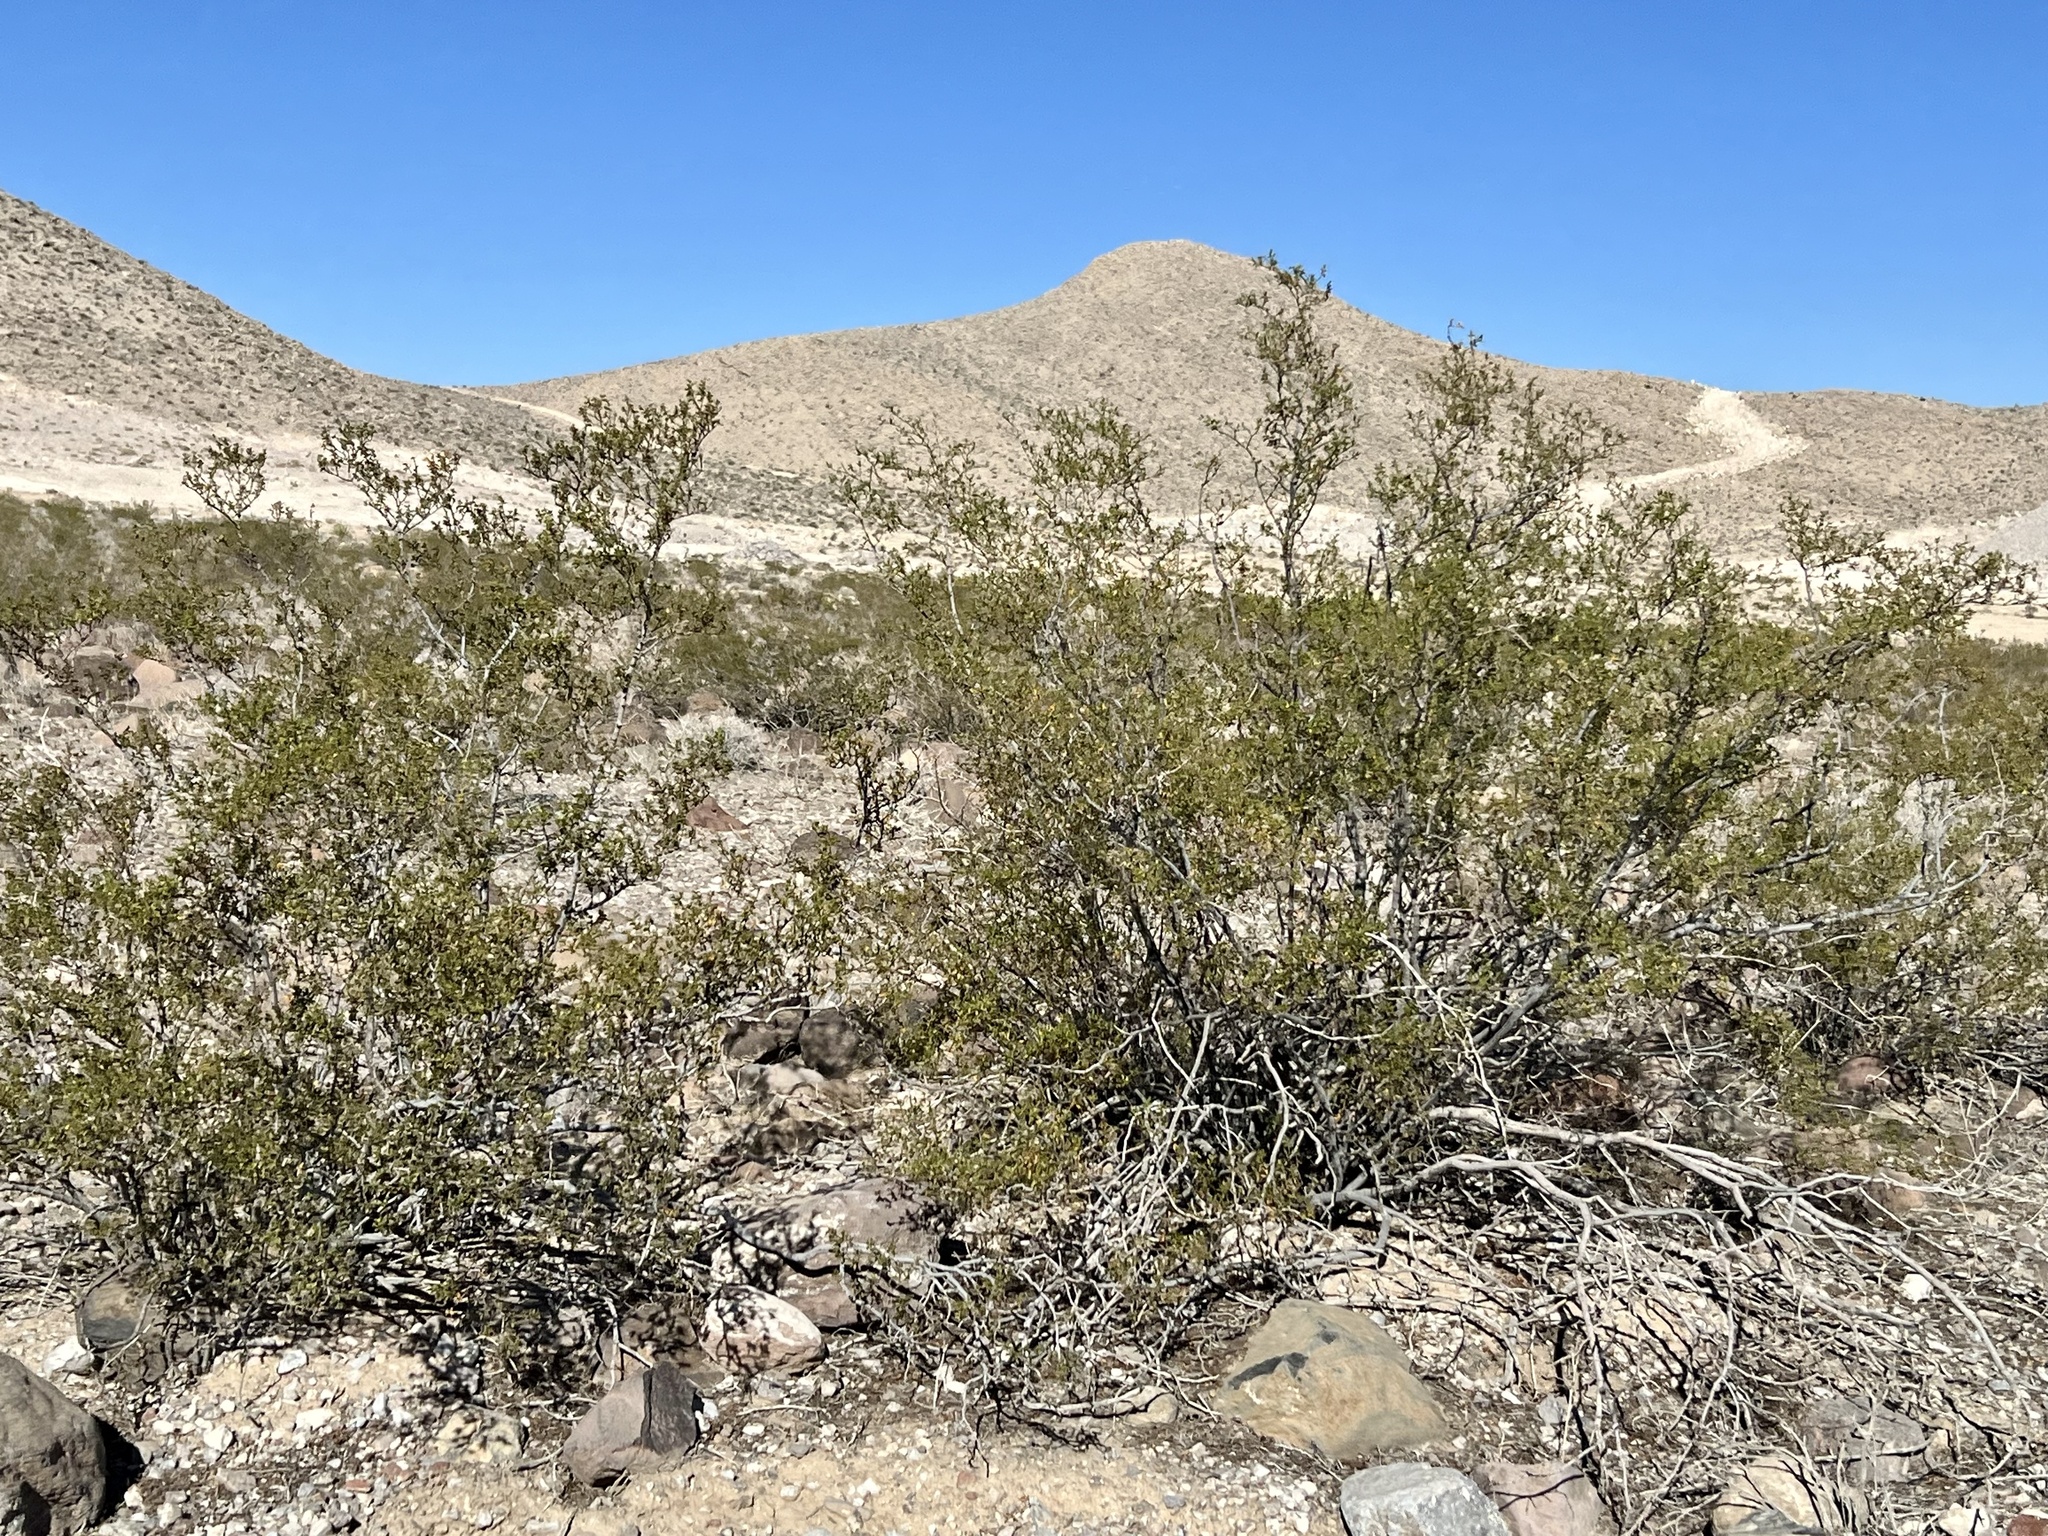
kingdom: Plantae
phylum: Tracheophyta
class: Magnoliopsida
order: Zygophyllales
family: Zygophyllaceae
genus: Larrea
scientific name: Larrea tridentata
